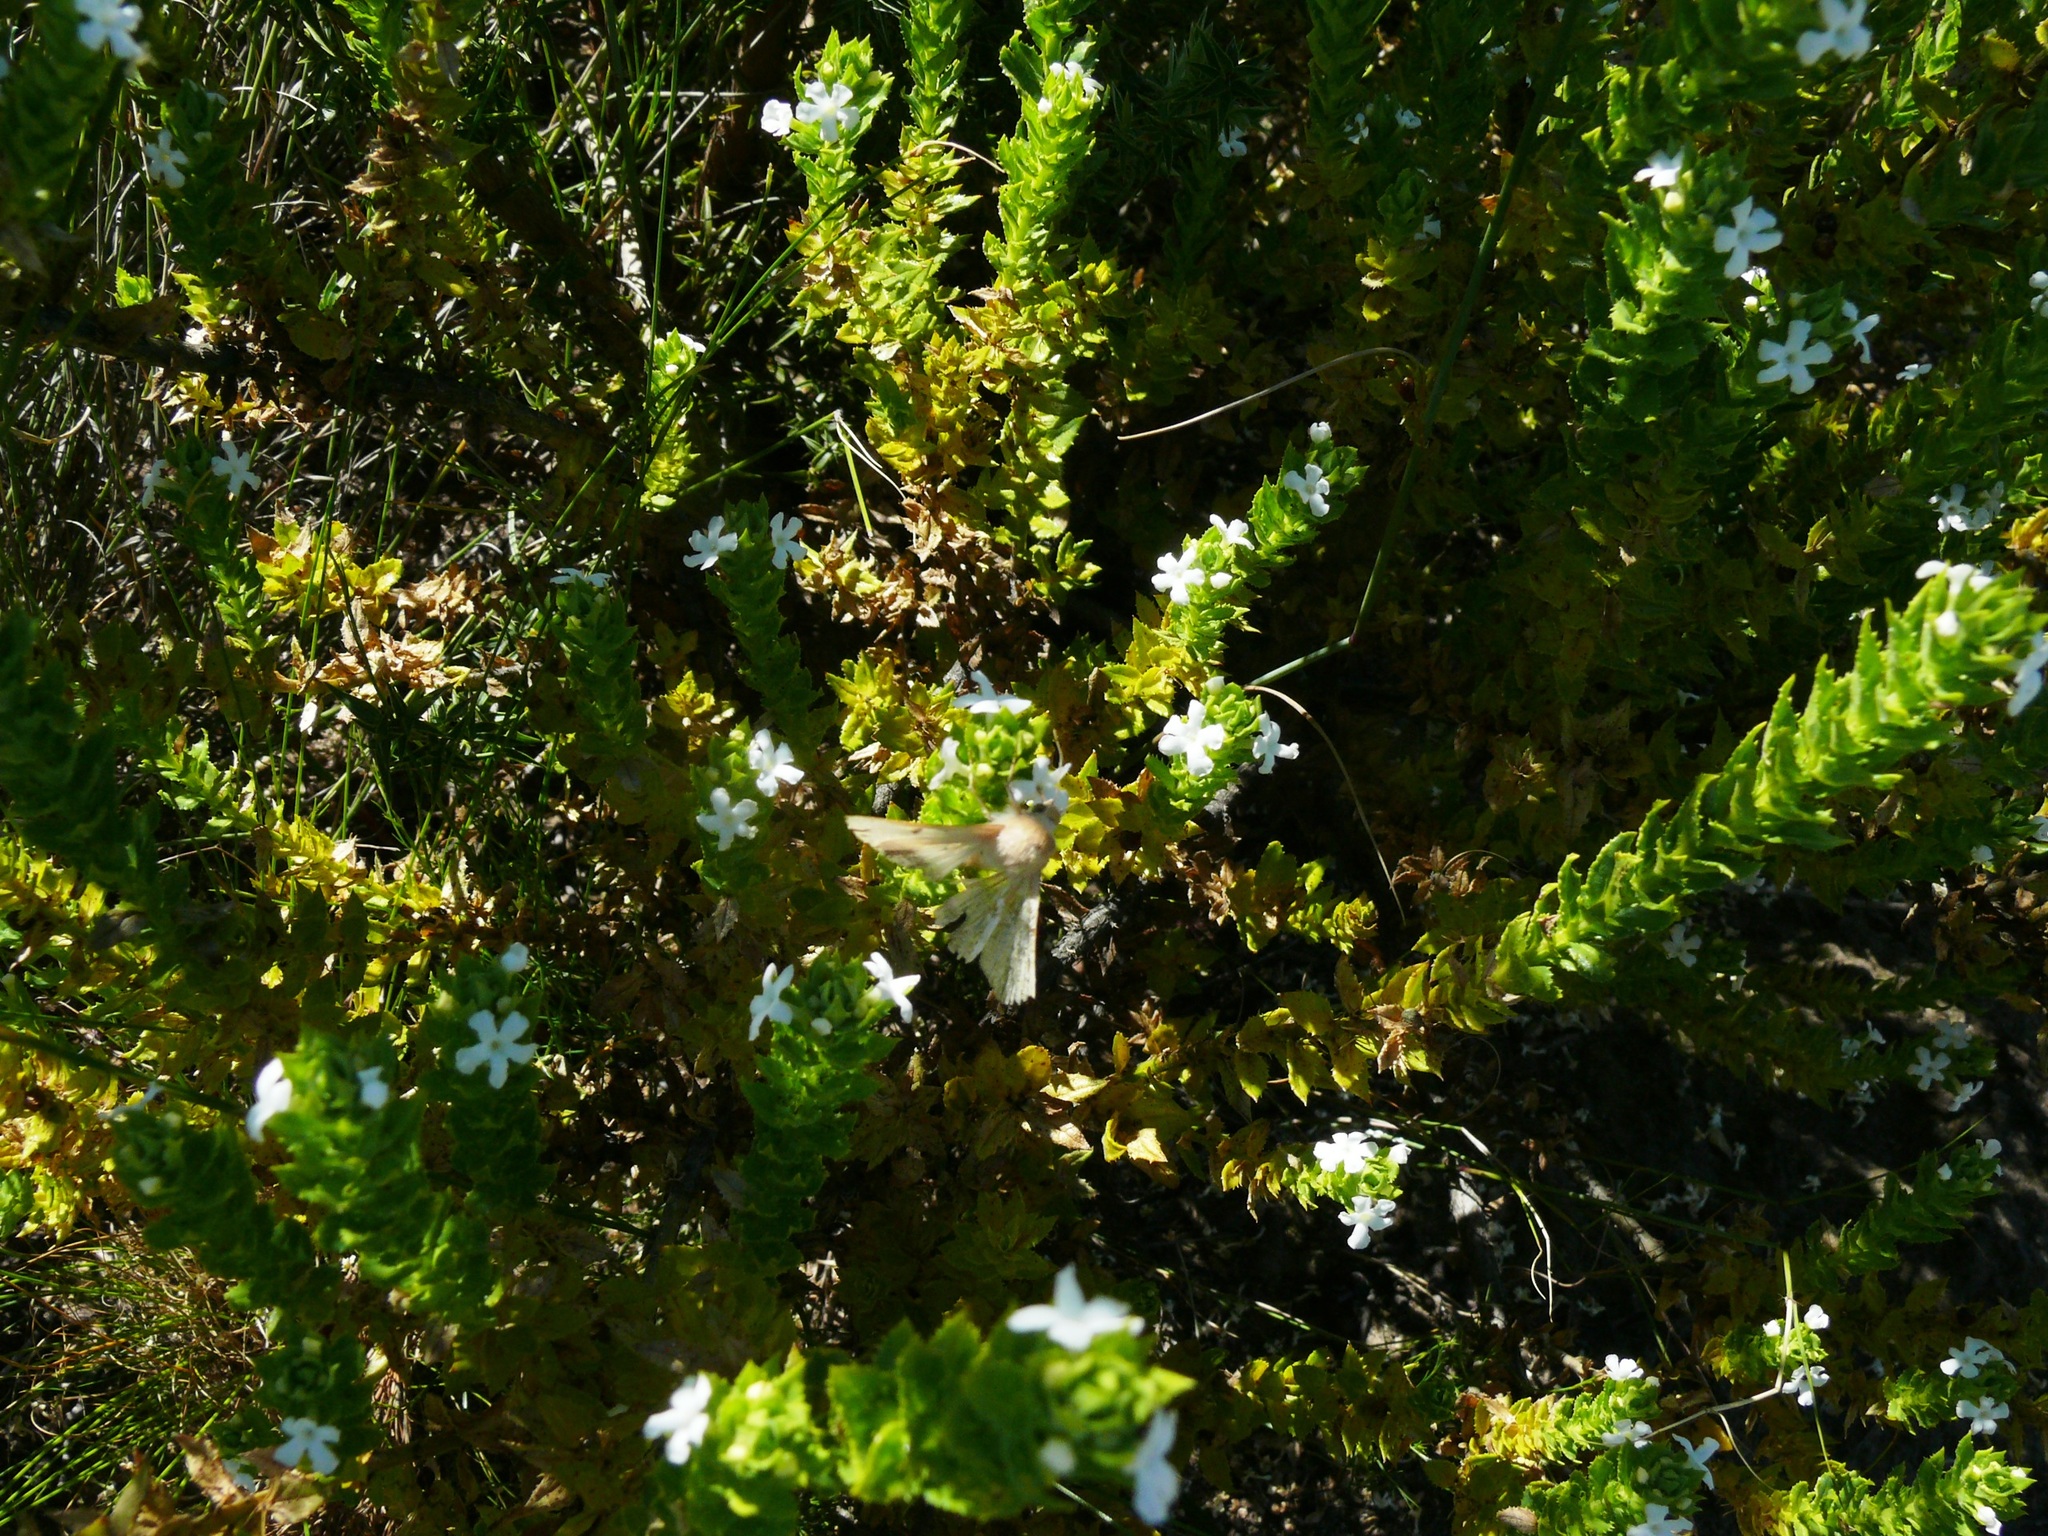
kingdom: Plantae
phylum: Tracheophyta
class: Magnoliopsida
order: Lamiales
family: Scrophulariaceae
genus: Oftia
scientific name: Oftia africana
